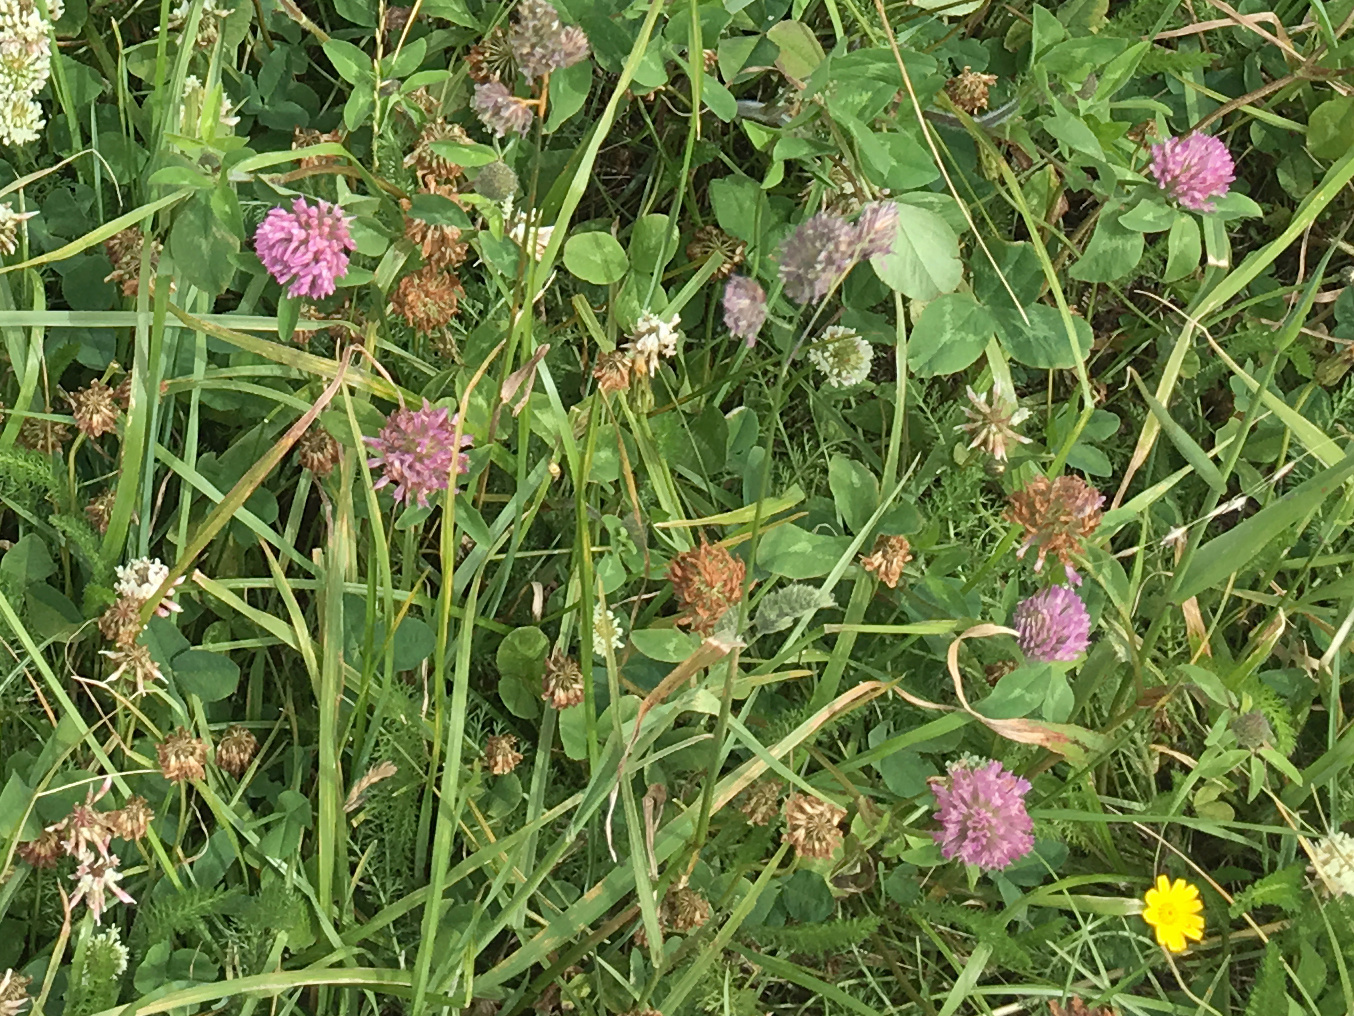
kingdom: Plantae
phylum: Tracheophyta
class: Magnoliopsida
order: Fabales
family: Fabaceae
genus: Trifolium
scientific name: Trifolium pratense
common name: Red clover
